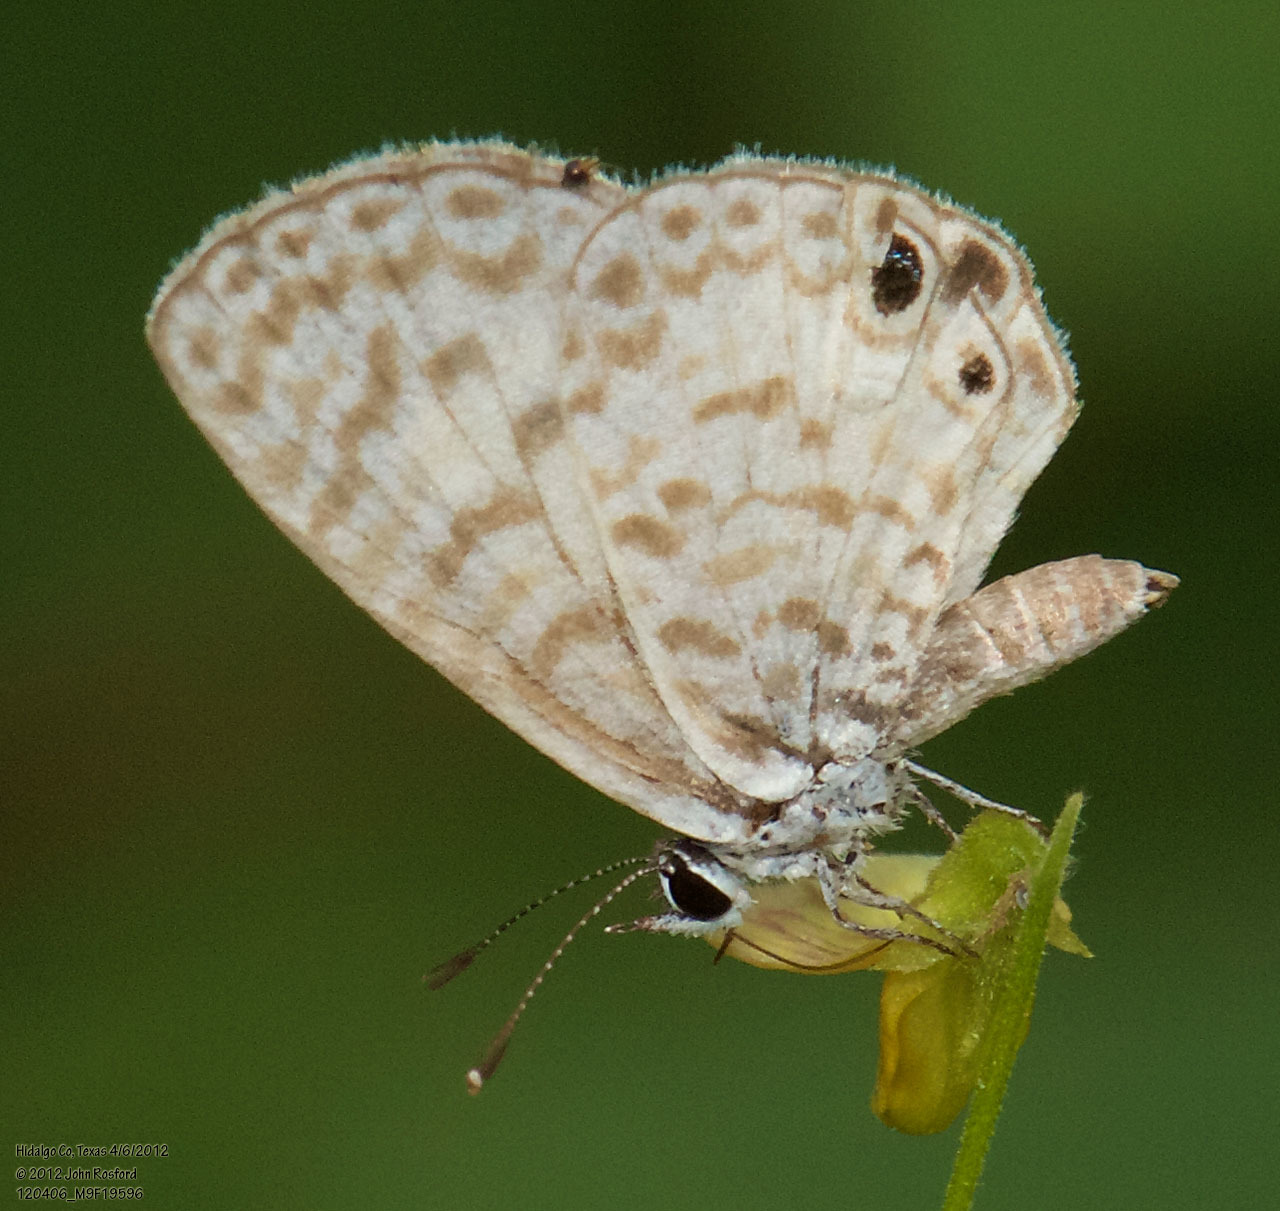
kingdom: Animalia
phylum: Arthropoda
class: Insecta
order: Lepidoptera
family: Lycaenidae
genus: Leptotes
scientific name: Leptotes cassius
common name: Cassius blue
